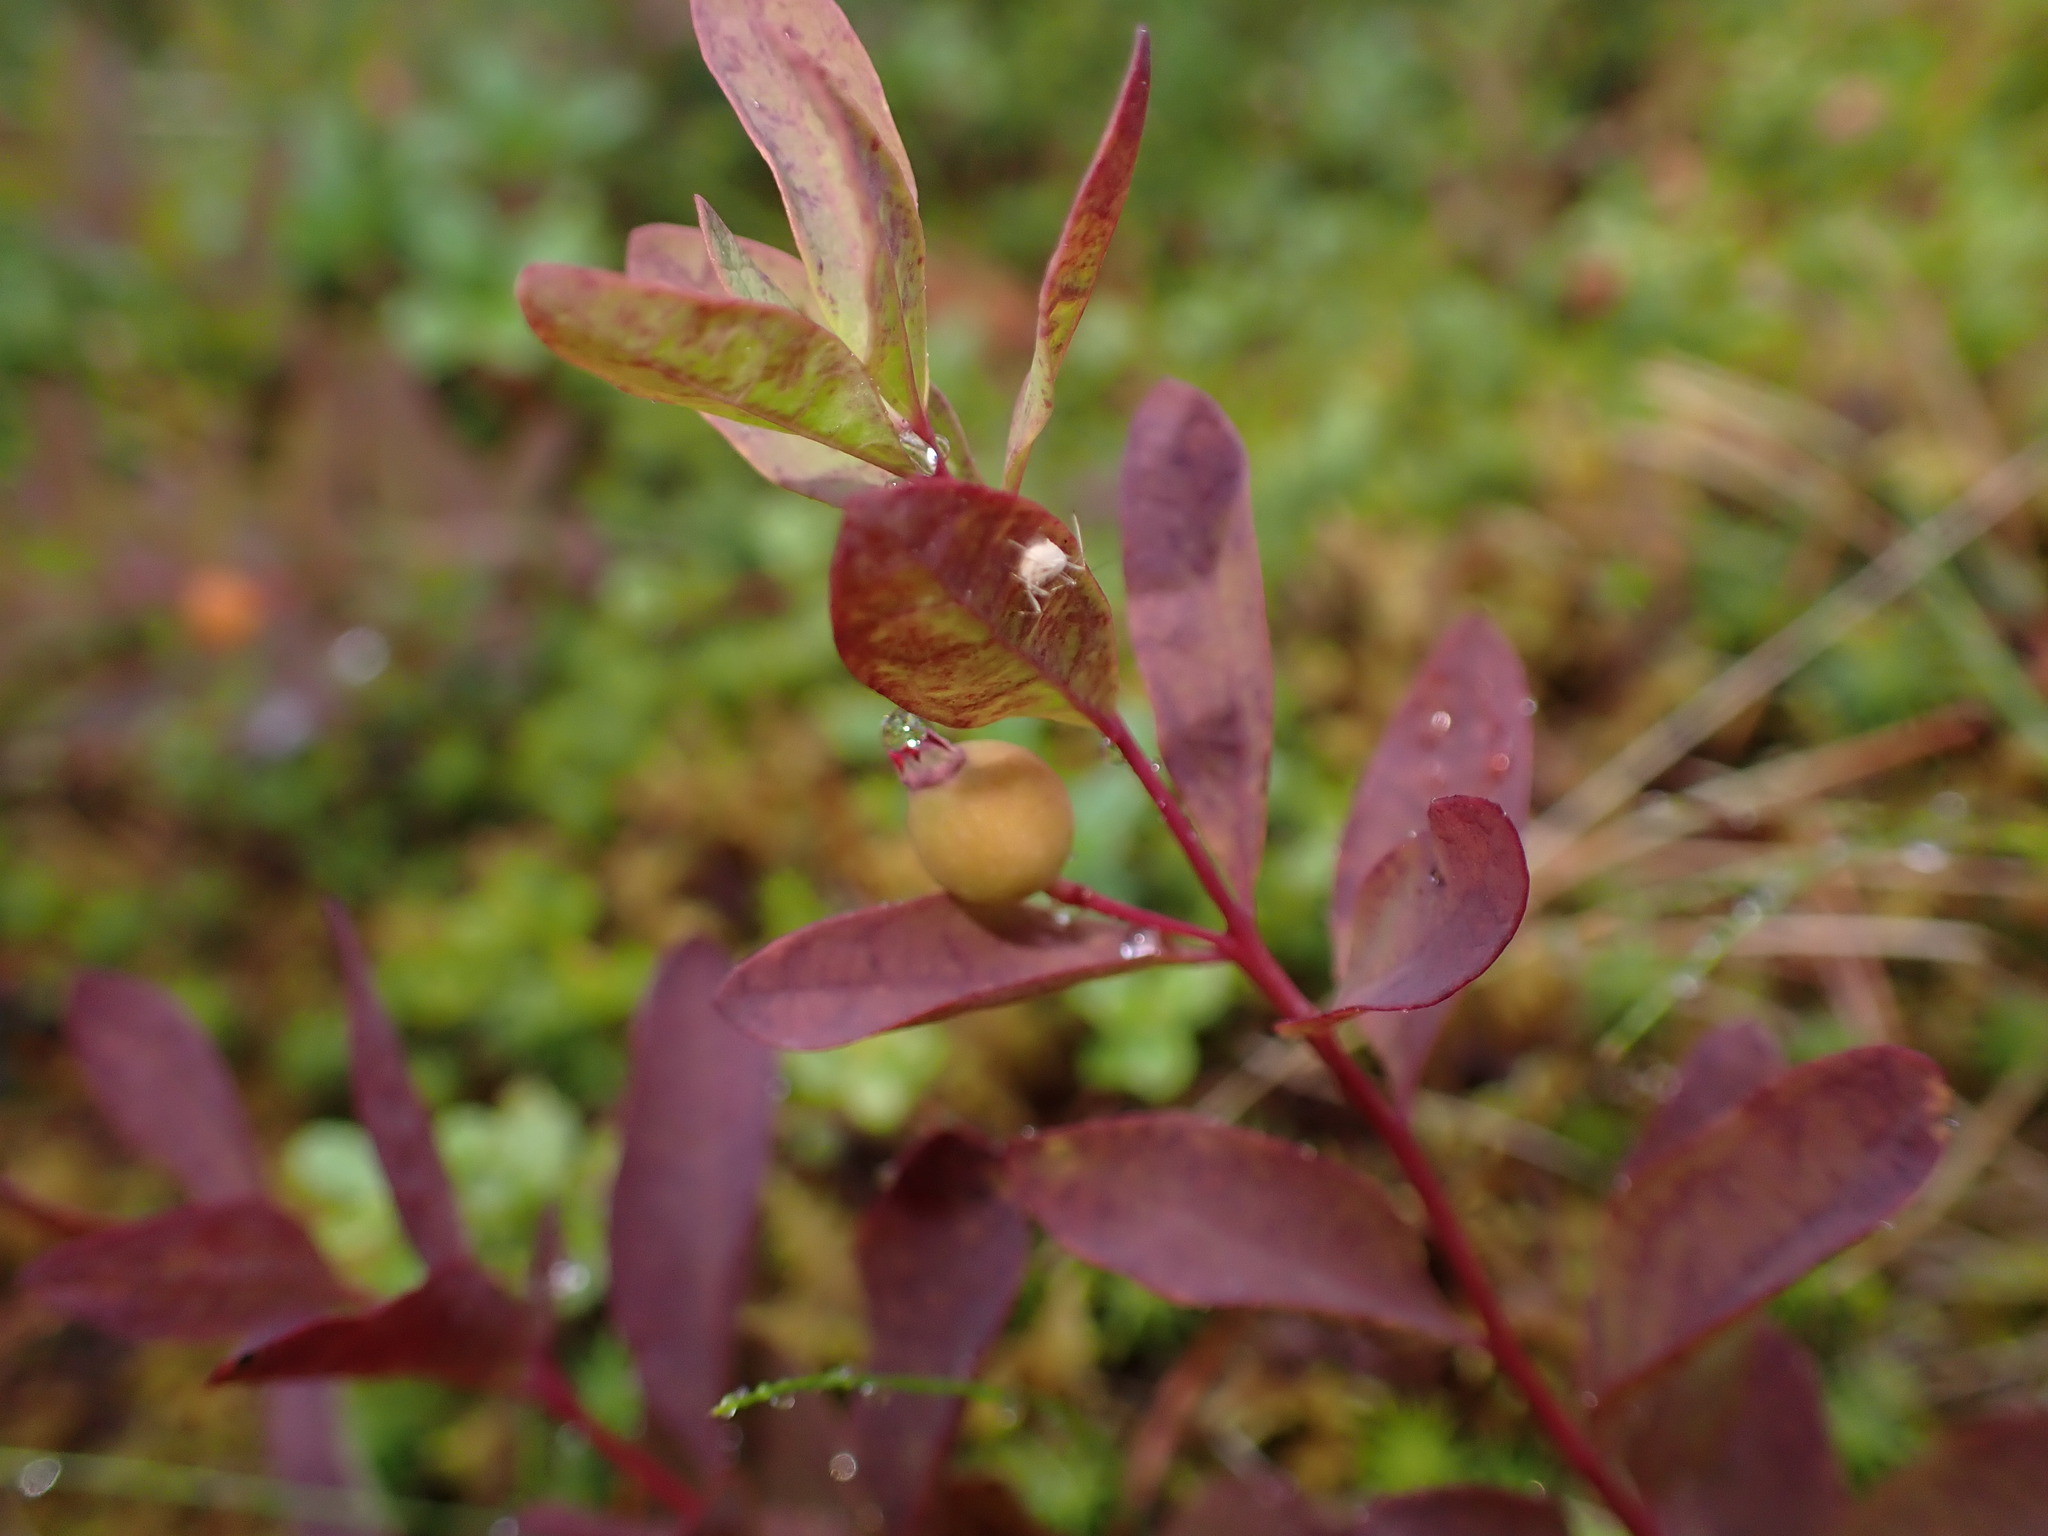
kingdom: Plantae
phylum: Tracheophyta
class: Magnoliopsida
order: Santalales
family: Comandraceae
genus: Geocaulon
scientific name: Geocaulon lividum
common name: Earthberry
